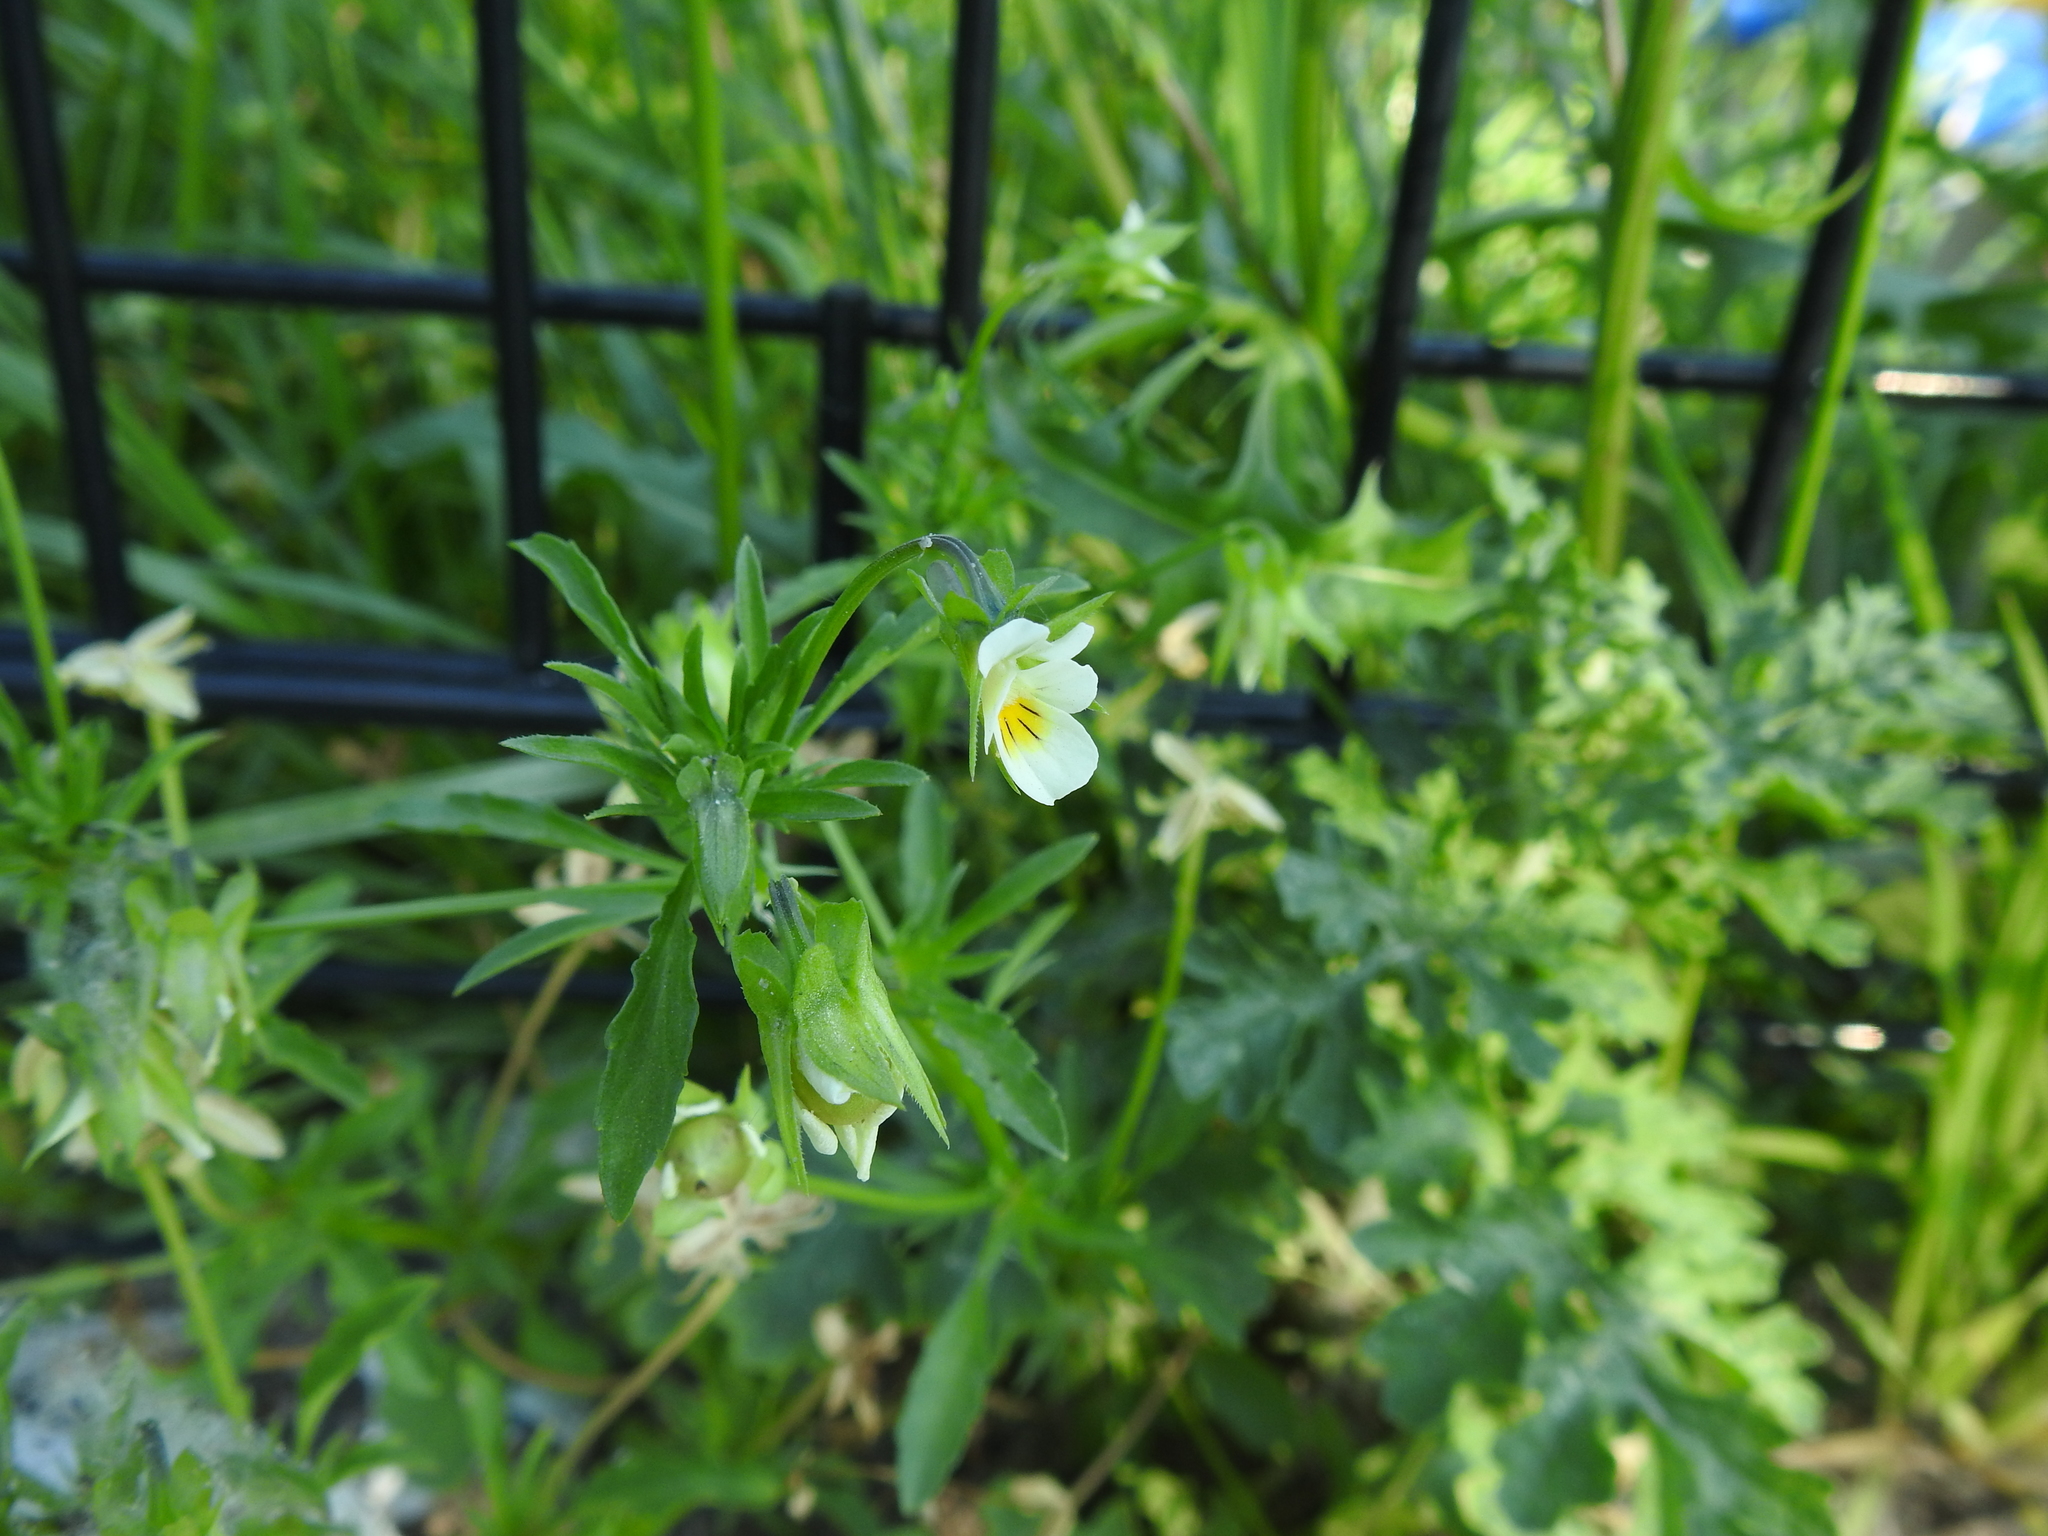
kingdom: Plantae
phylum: Tracheophyta
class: Magnoliopsida
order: Malpighiales
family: Violaceae
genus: Viola
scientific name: Viola arvensis
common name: Field pansy
